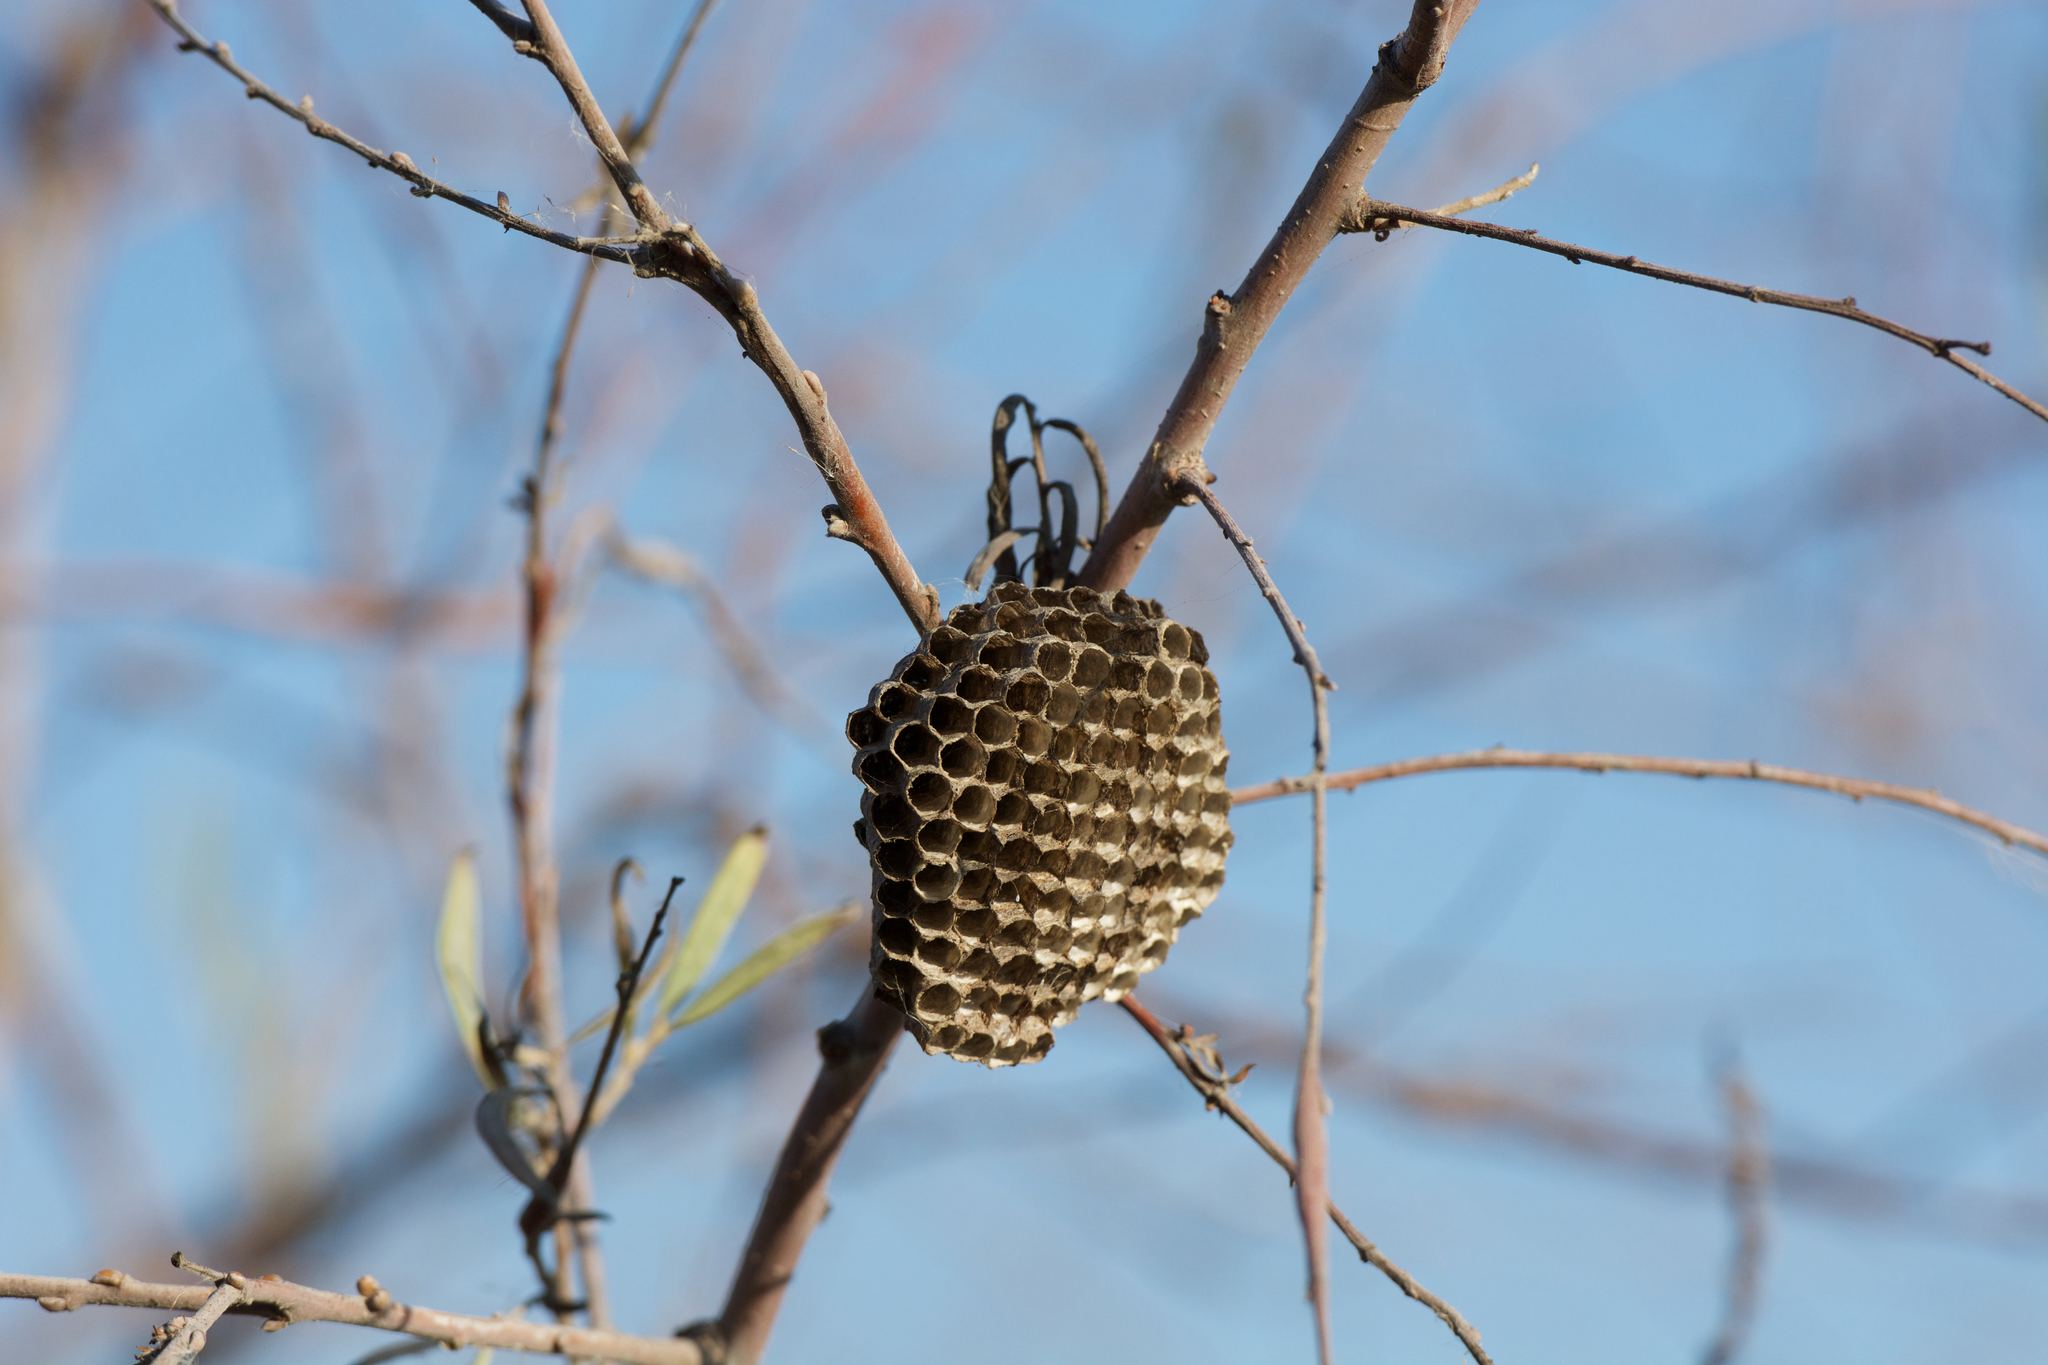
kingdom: Animalia
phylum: Arthropoda
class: Insecta
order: Hymenoptera
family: Vespidae
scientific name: Vespidae
